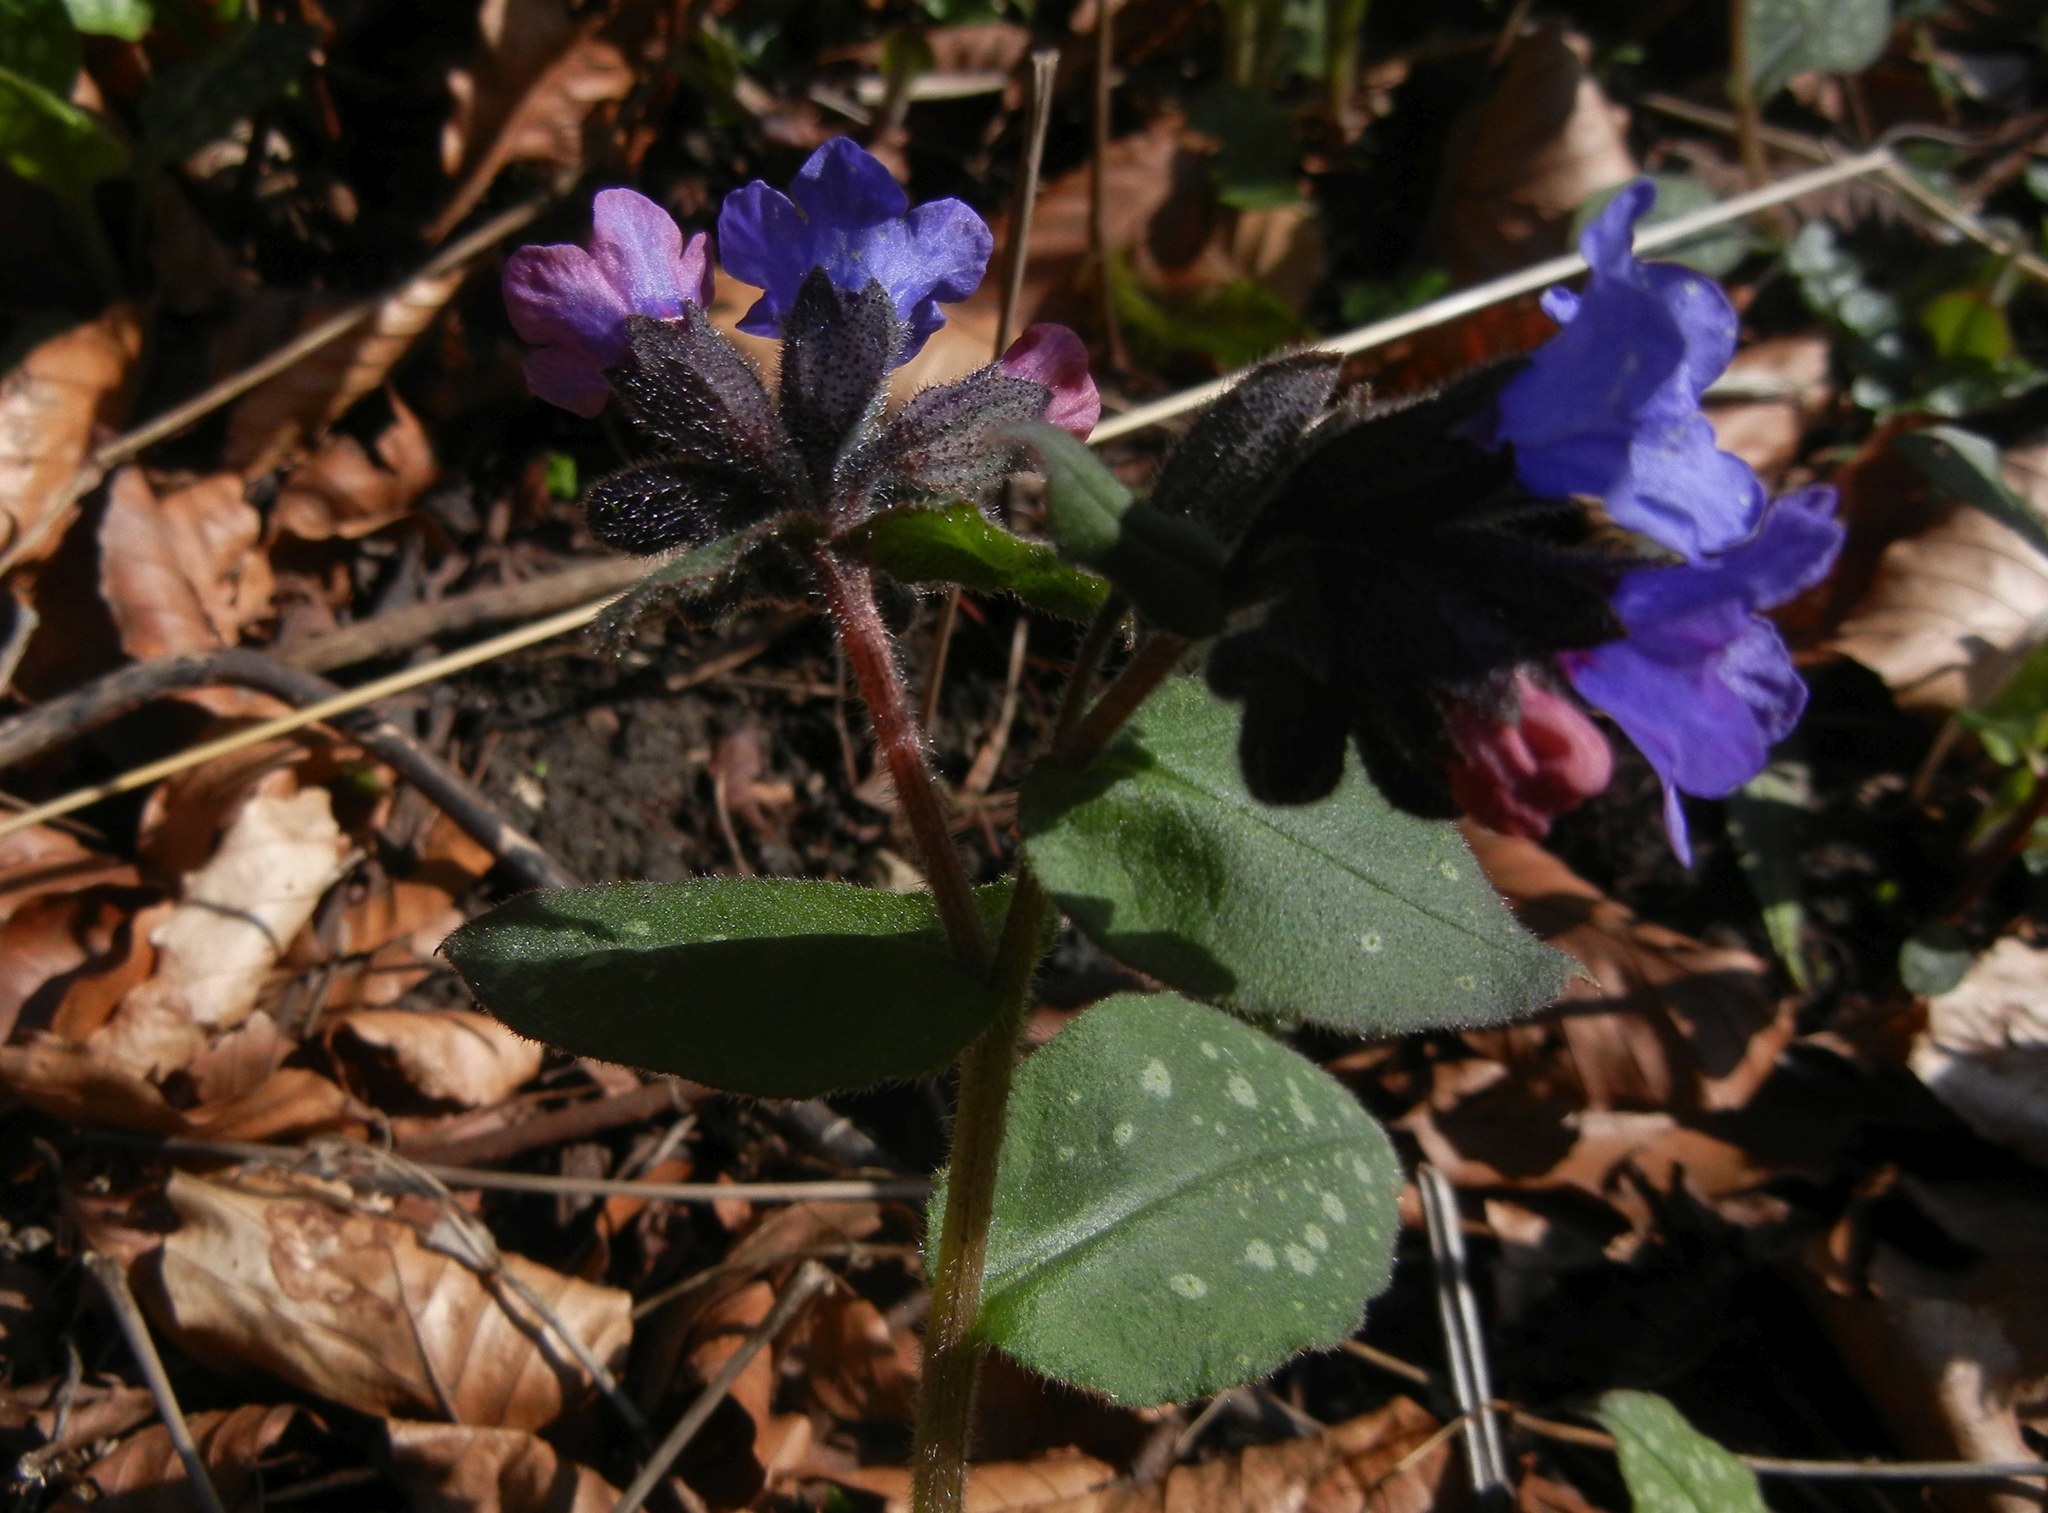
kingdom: Plantae
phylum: Tracheophyta
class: Magnoliopsida
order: Boraginales
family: Boraginaceae
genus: Pulmonaria
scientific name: Pulmonaria officinalis
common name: Lungwort
